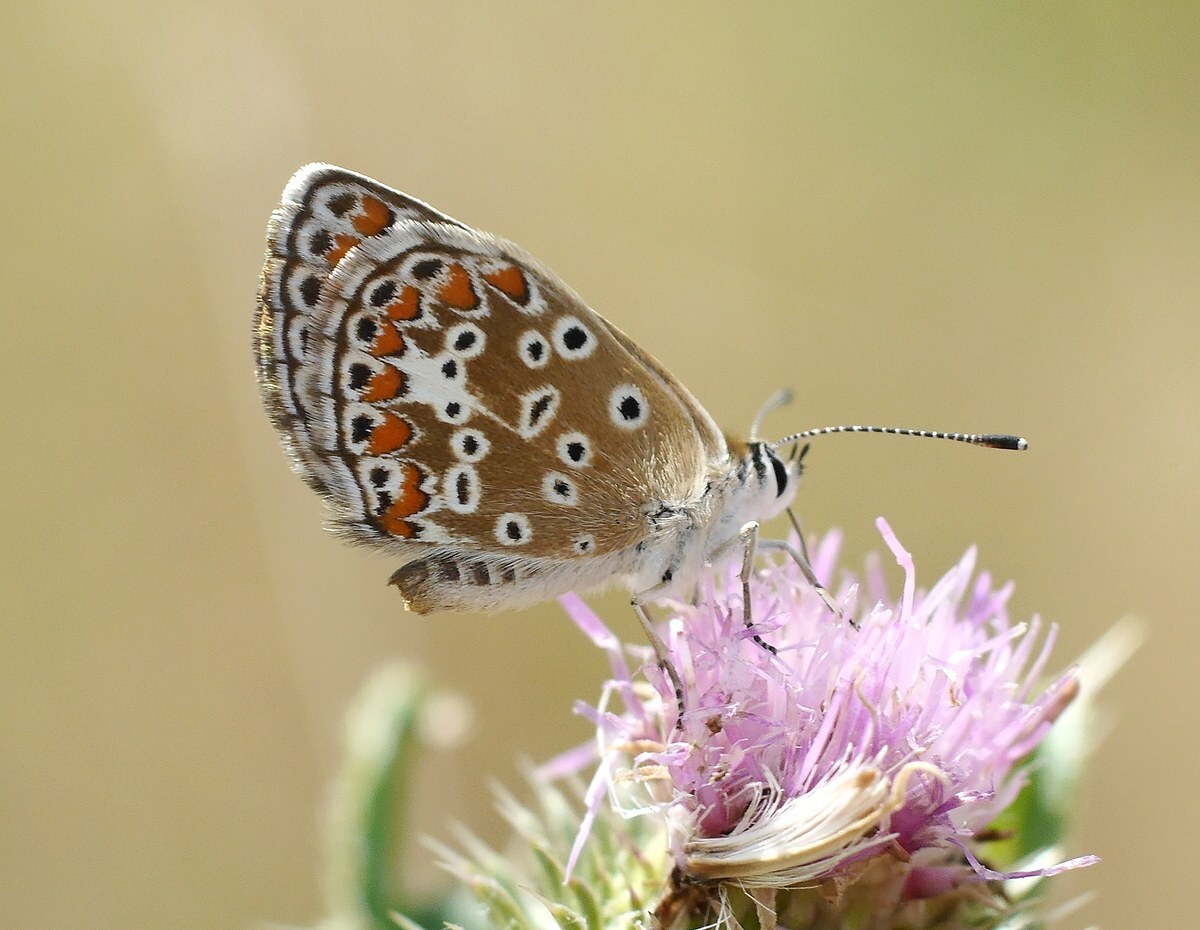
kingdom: Animalia
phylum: Arthropoda
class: Insecta
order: Lepidoptera
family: Lycaenidae
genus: Aricia
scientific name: Aricia agestis
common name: Brown argus
